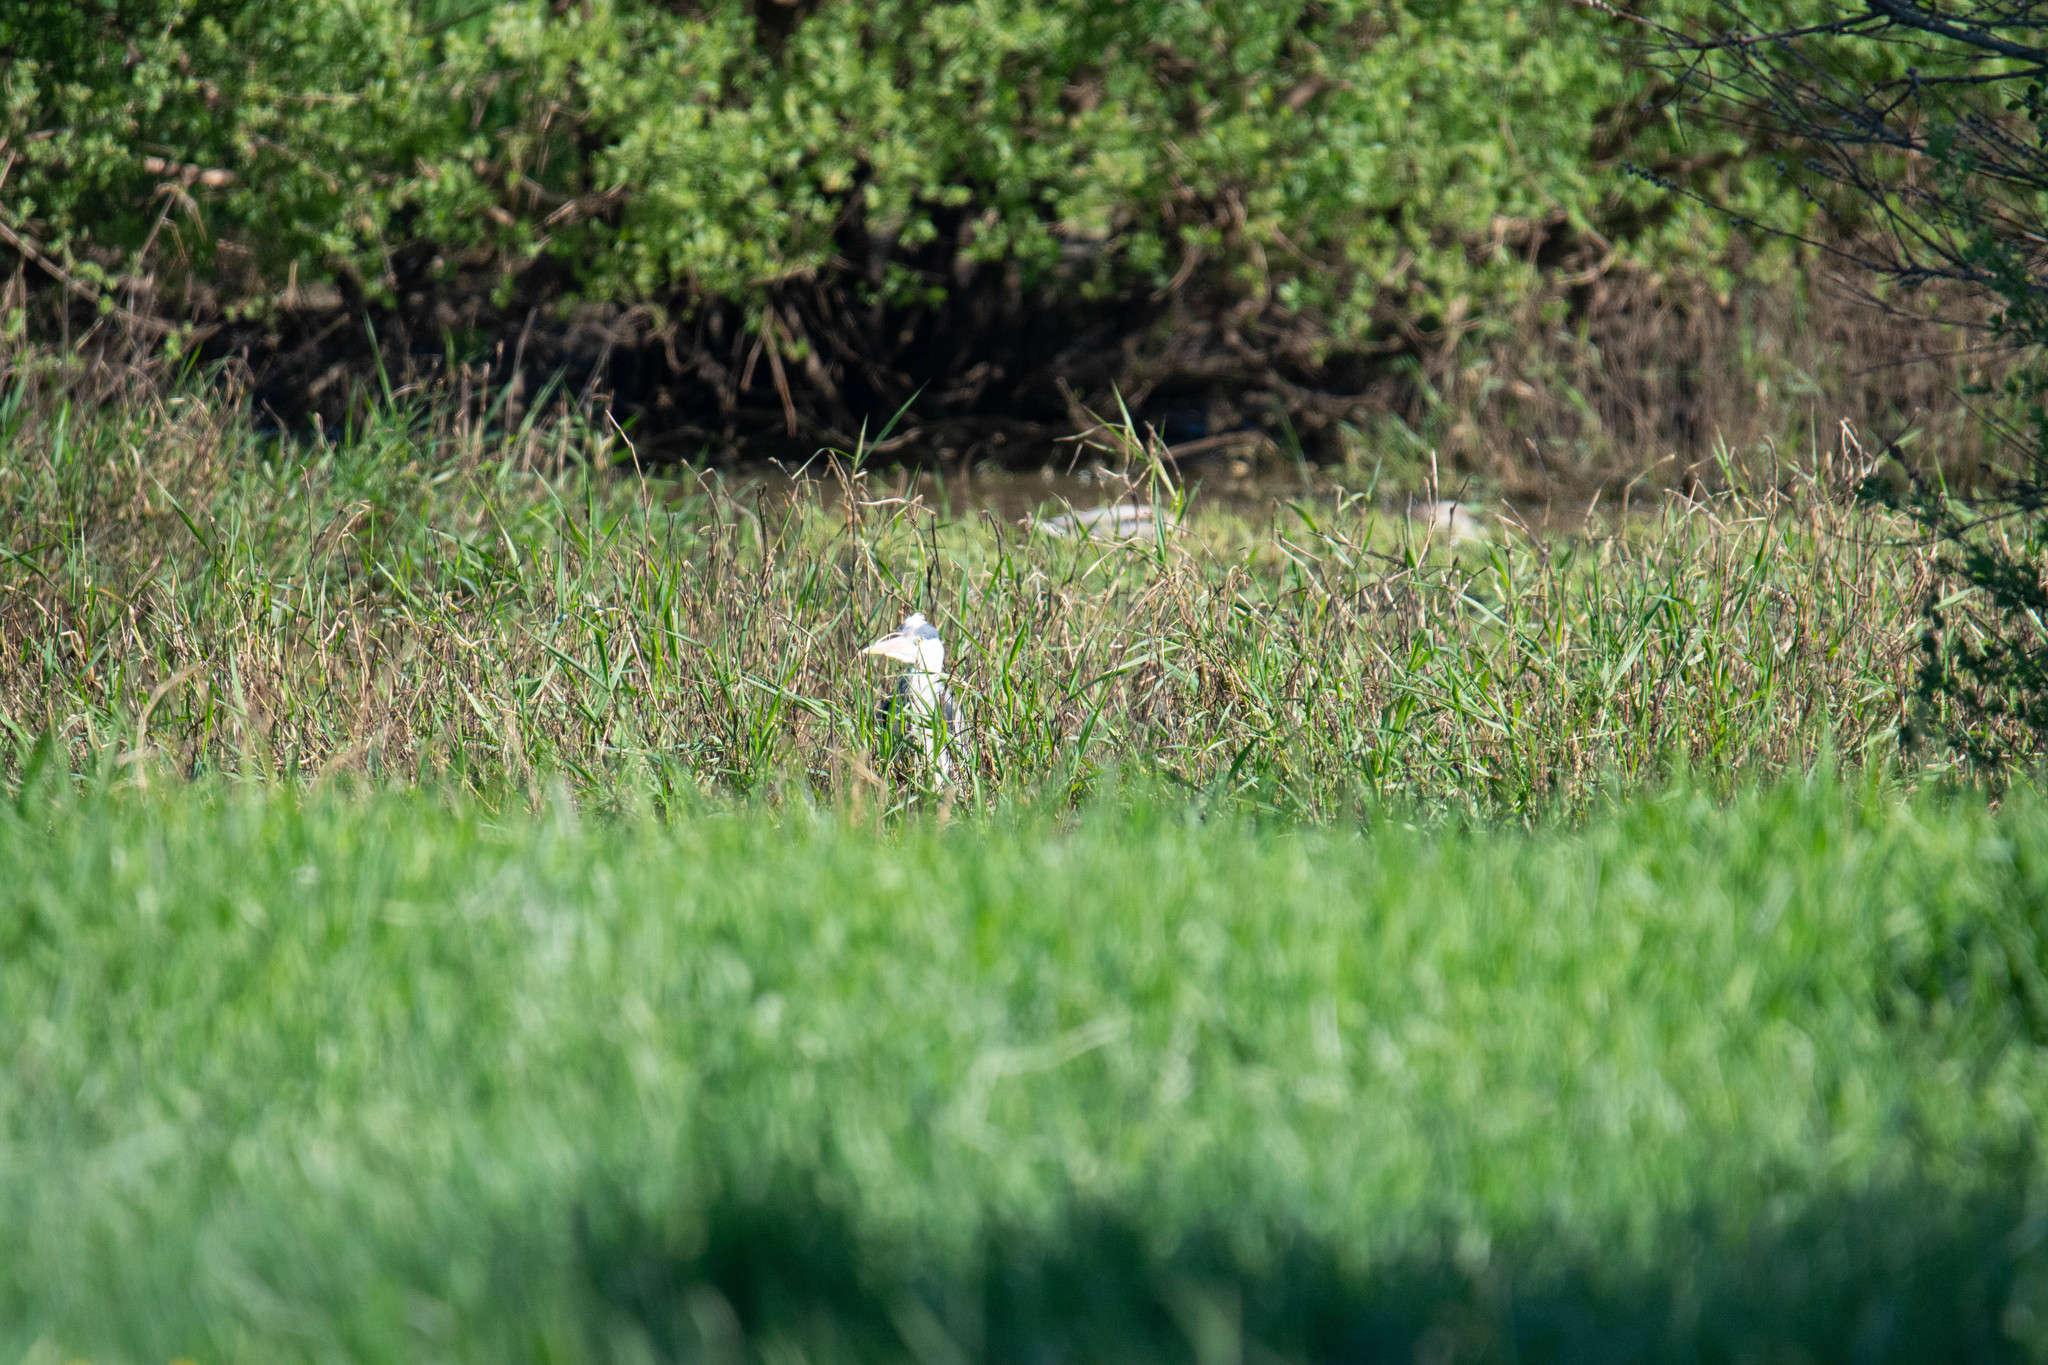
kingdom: Animalia
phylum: Chordata
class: Aves
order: Pelecaniformes
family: Ardeidae
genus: Ardea
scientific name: Ardea cinerea
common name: Grey heron
